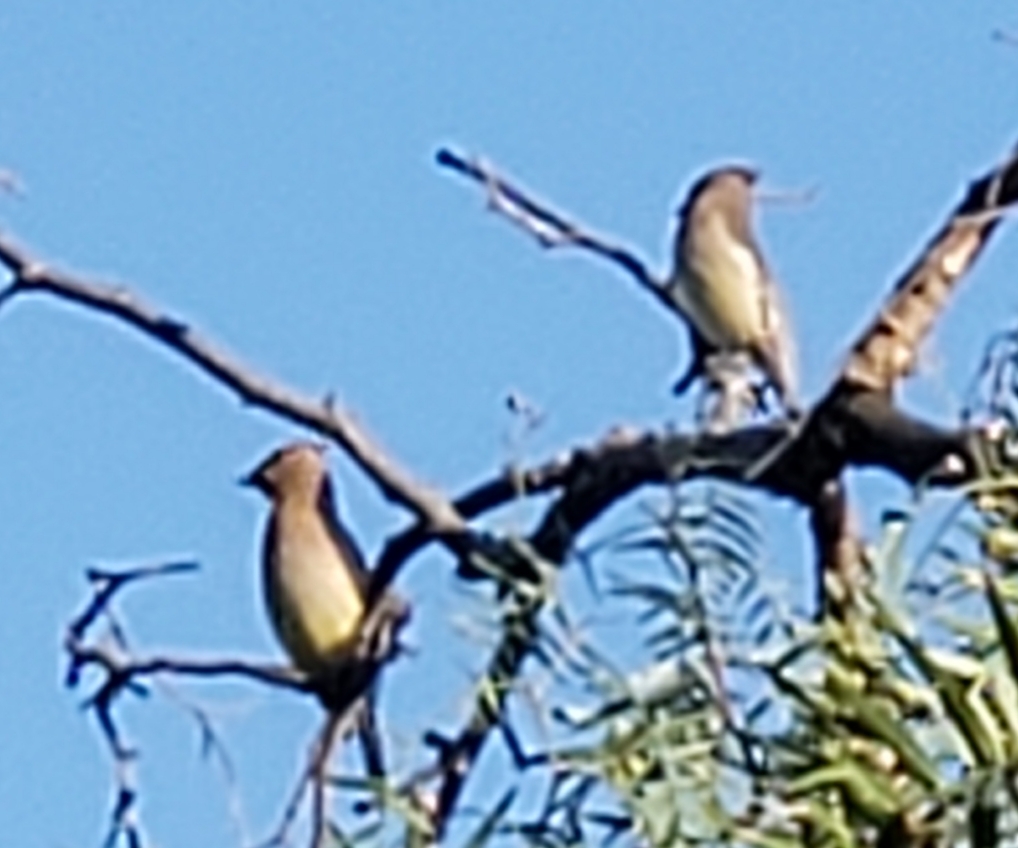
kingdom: Animalia
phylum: Chordata
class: Aves
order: Passeriformes
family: Bombycillidae
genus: Bombycilla
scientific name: Bombycilla cedrorum
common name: Cedar waxwing
